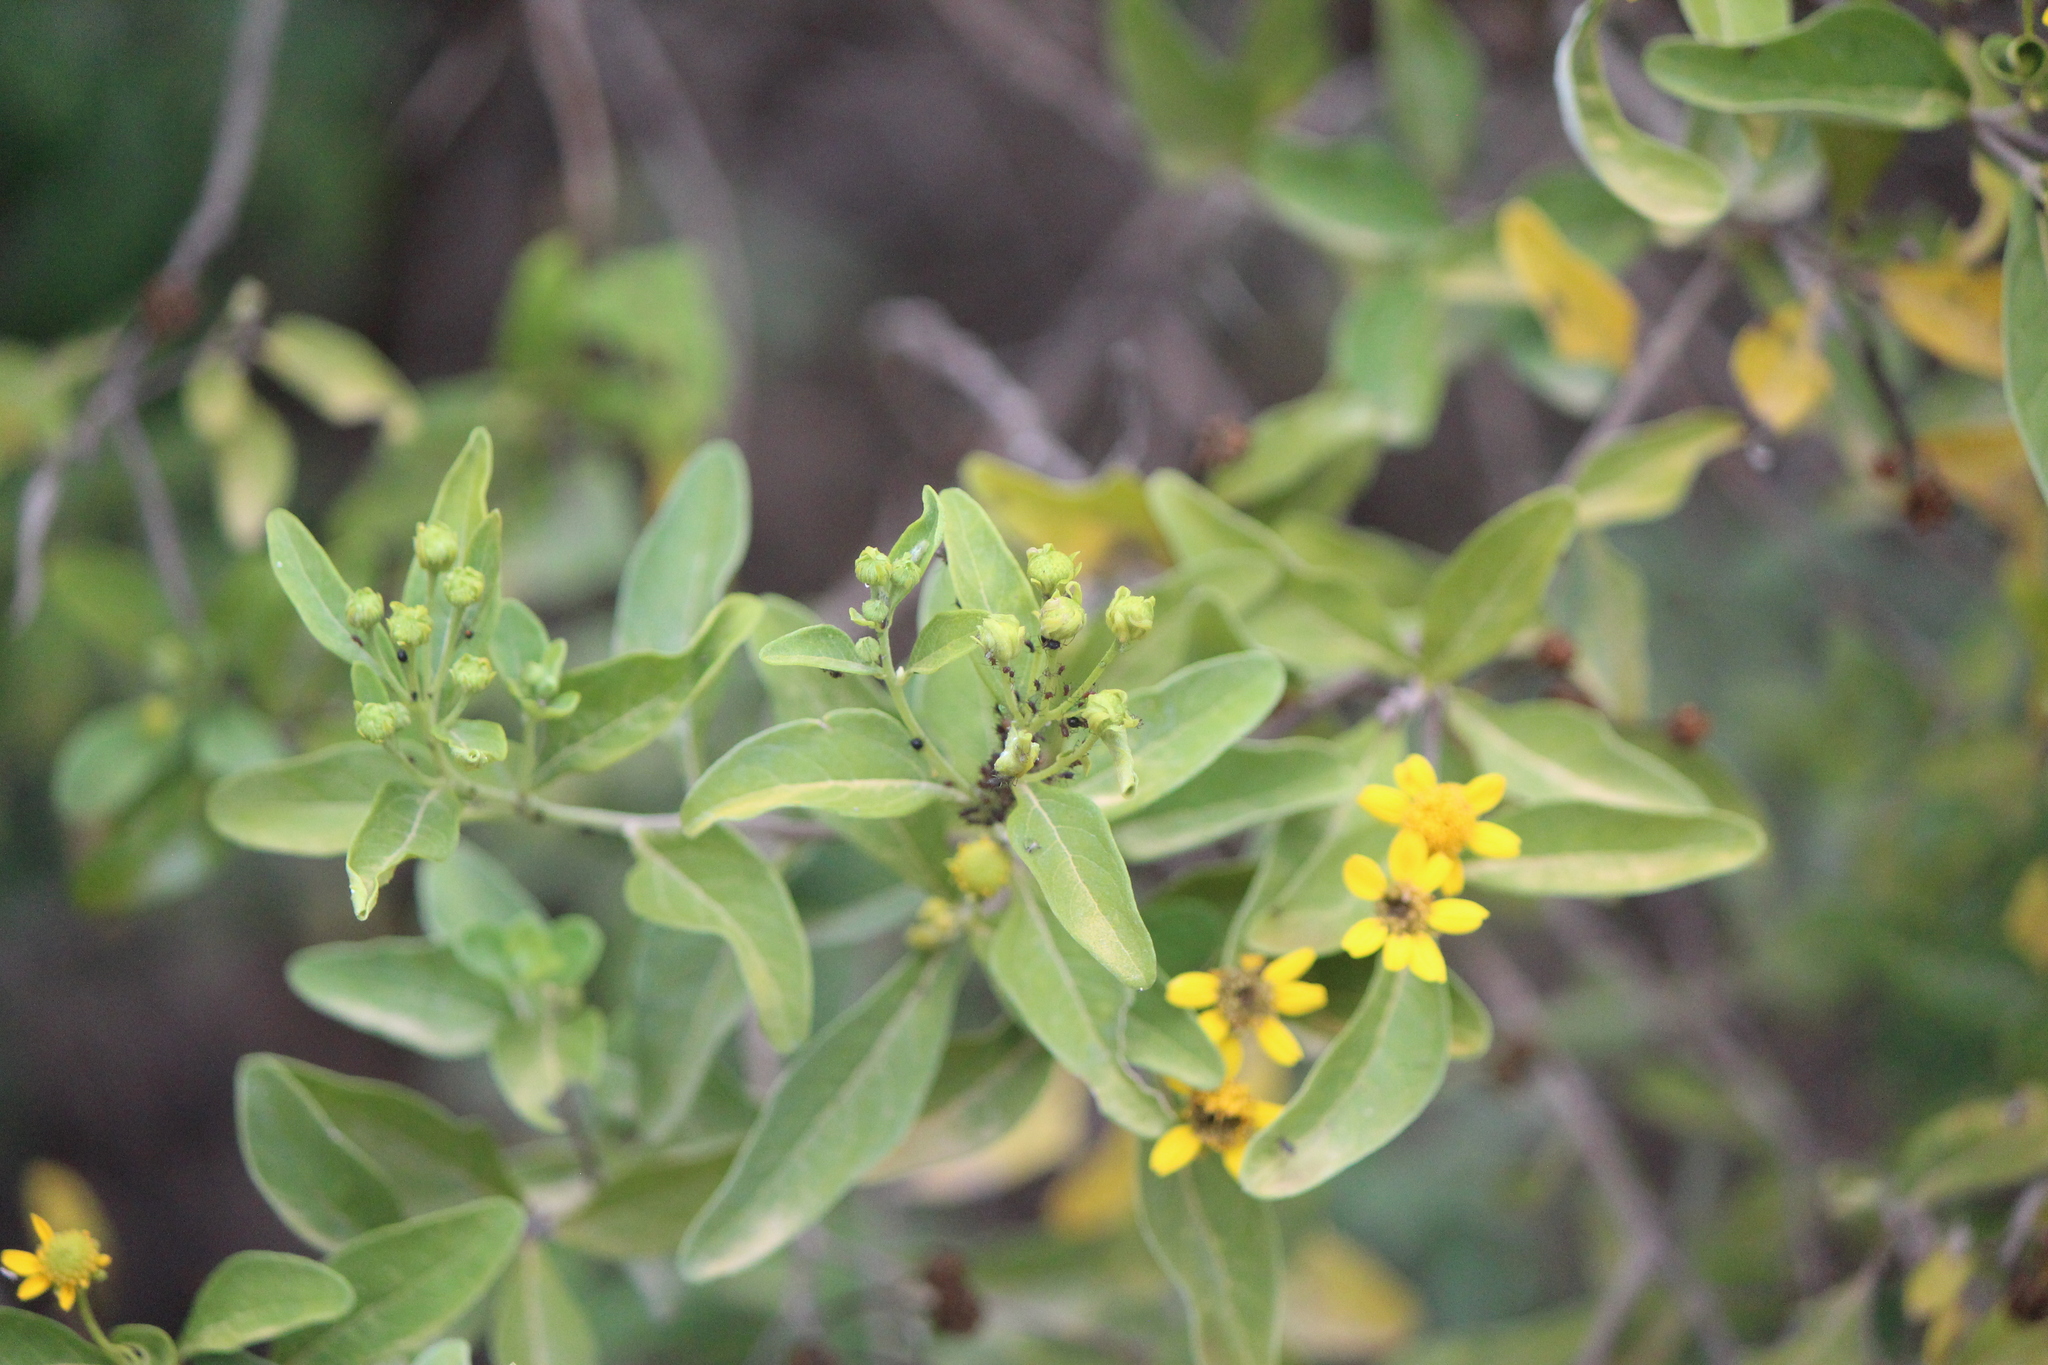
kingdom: Plantae
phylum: Tracheophyta
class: Magnoliopsida
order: Asterales
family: Asteraceae
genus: Zaluzania
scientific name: Zaluzania augusta
